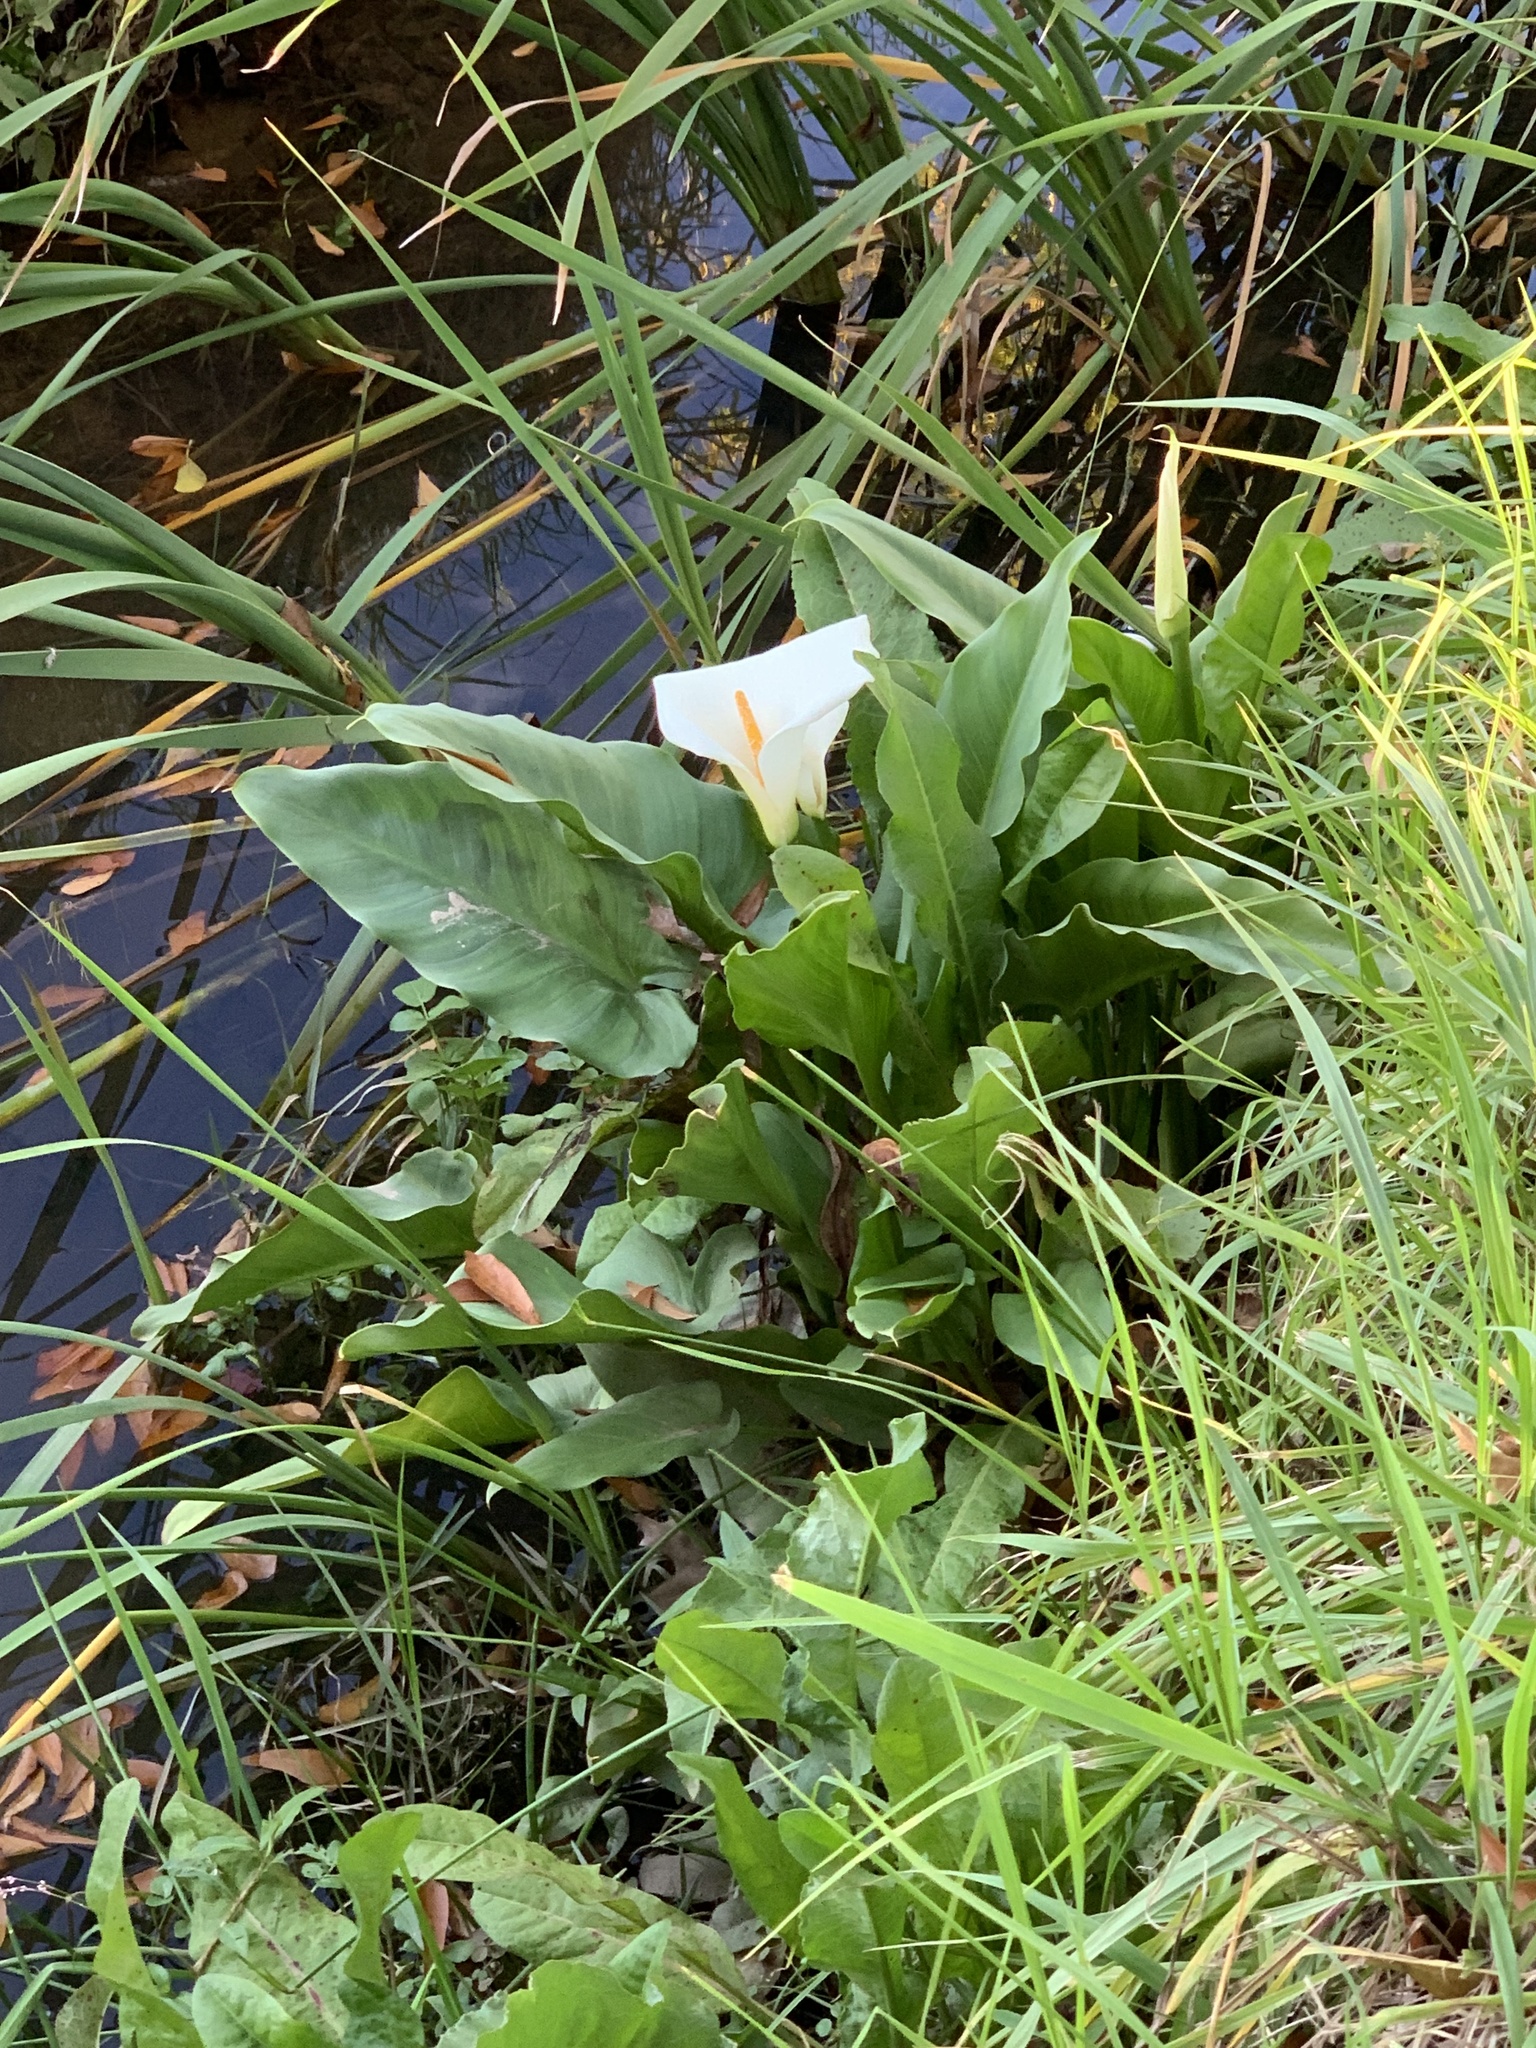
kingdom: Plantae
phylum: Tracheophyta
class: Liliopsida
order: Alismatales
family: Araceae
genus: Zantedeschia
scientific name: Zantedeschia aethiopica
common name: Altar-lily
